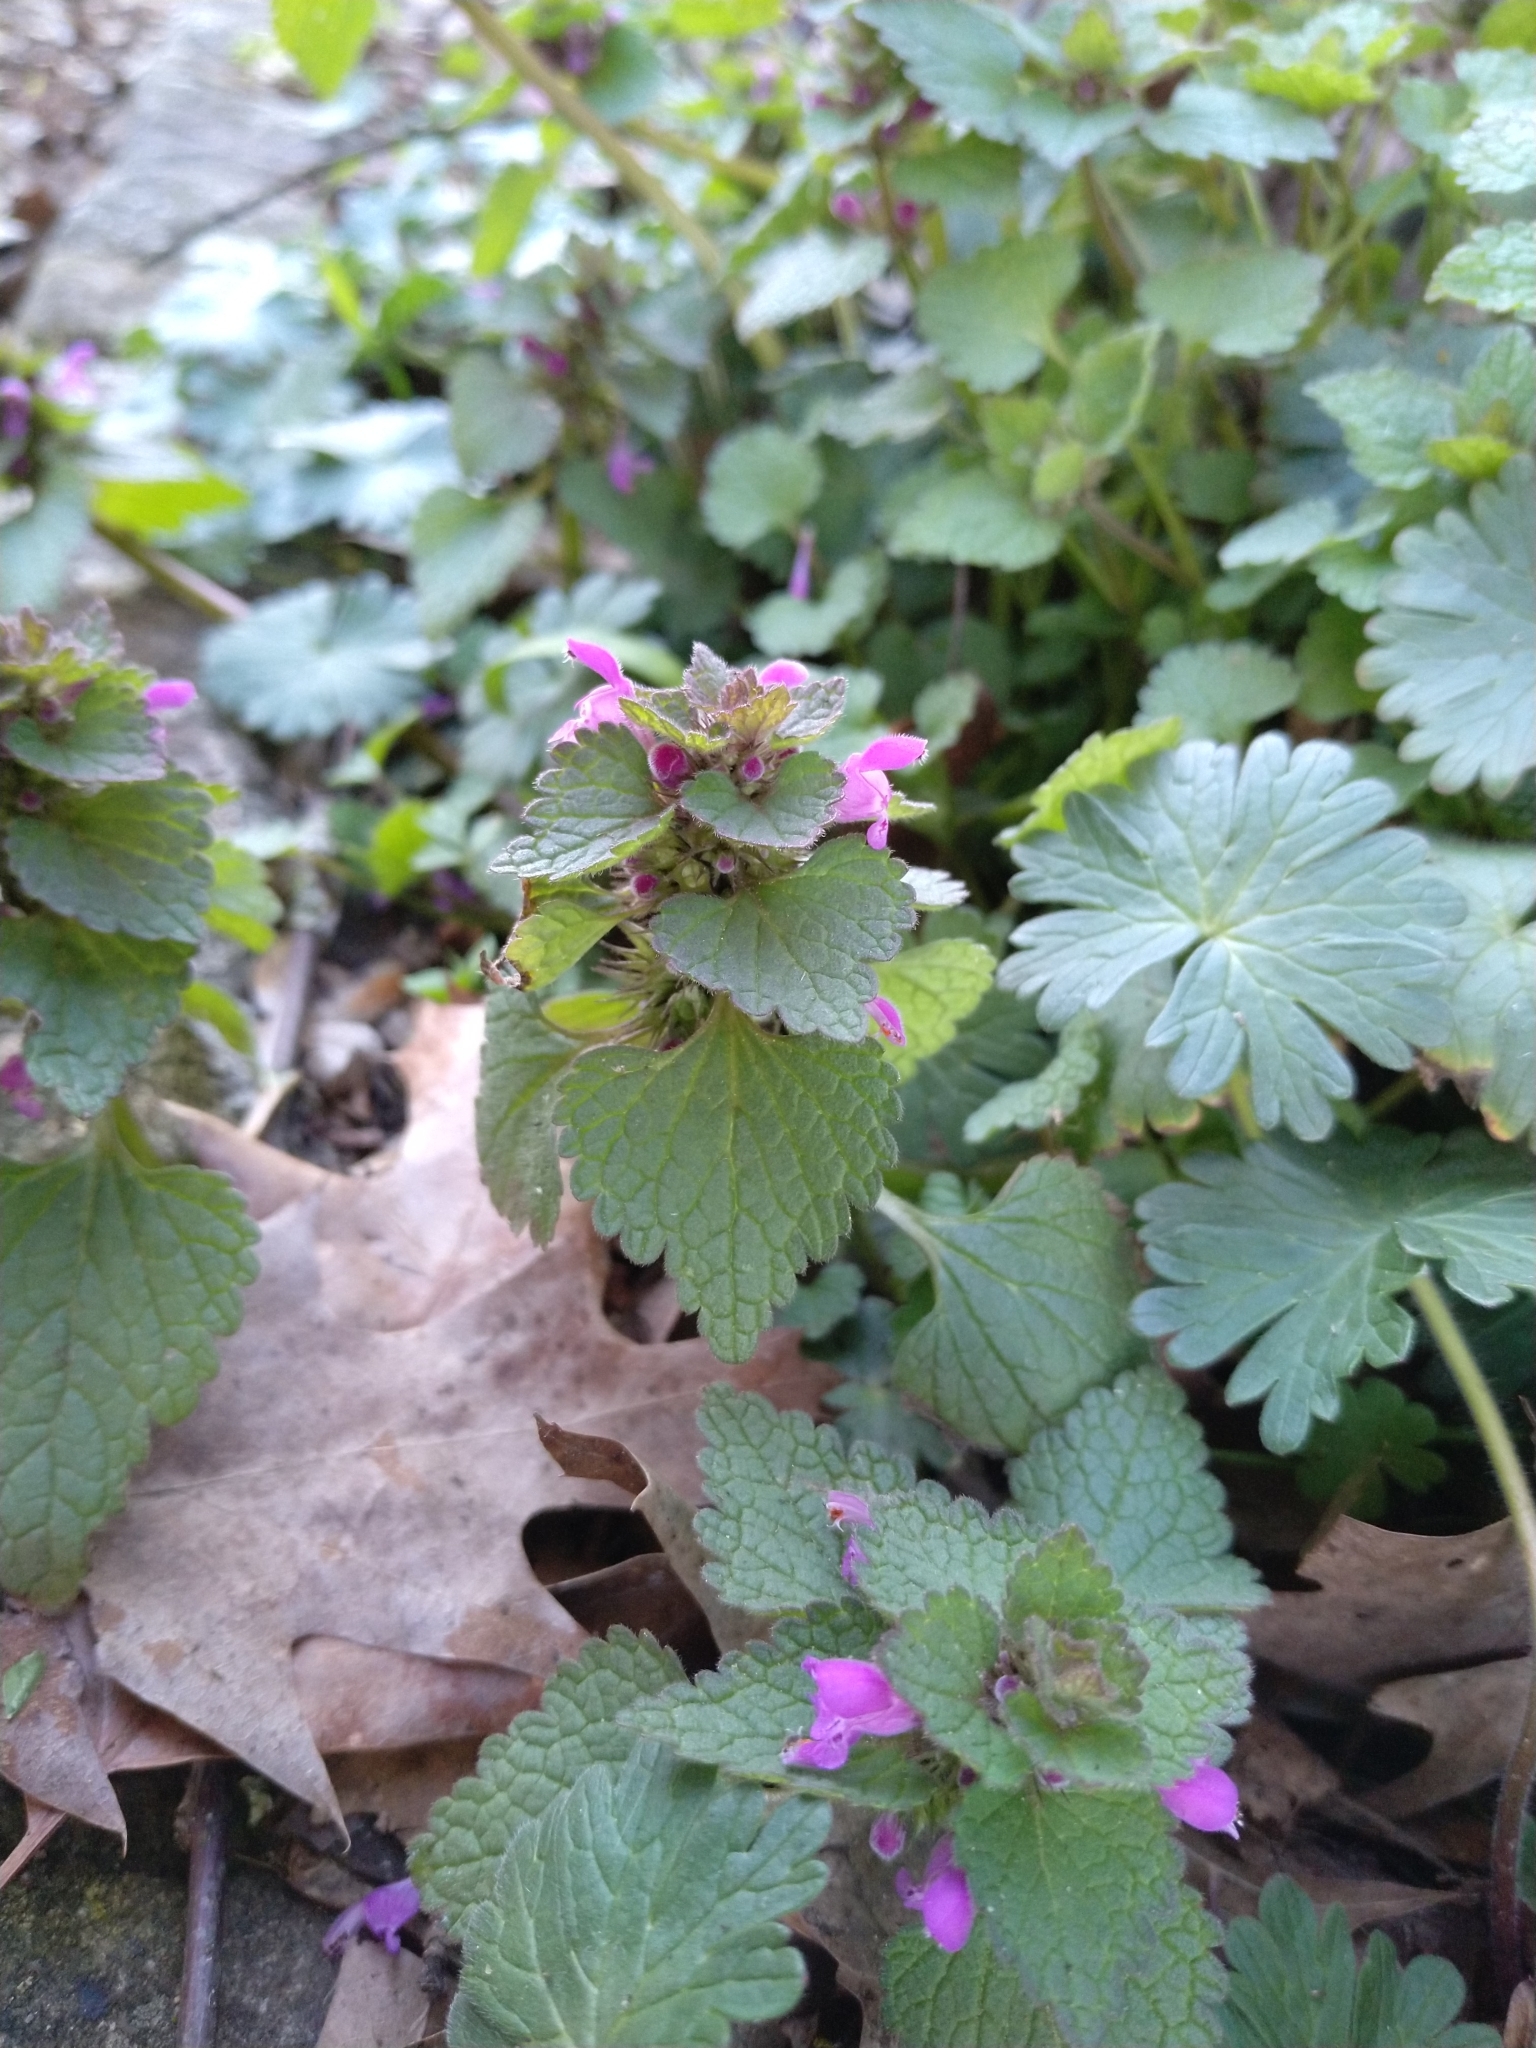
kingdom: Plantae
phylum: Tracheophyta
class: Magnoliopsida
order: Lamiales
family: Lamiaceae
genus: Lamium
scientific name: Lamium purpureum
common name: Red dead-nettle
